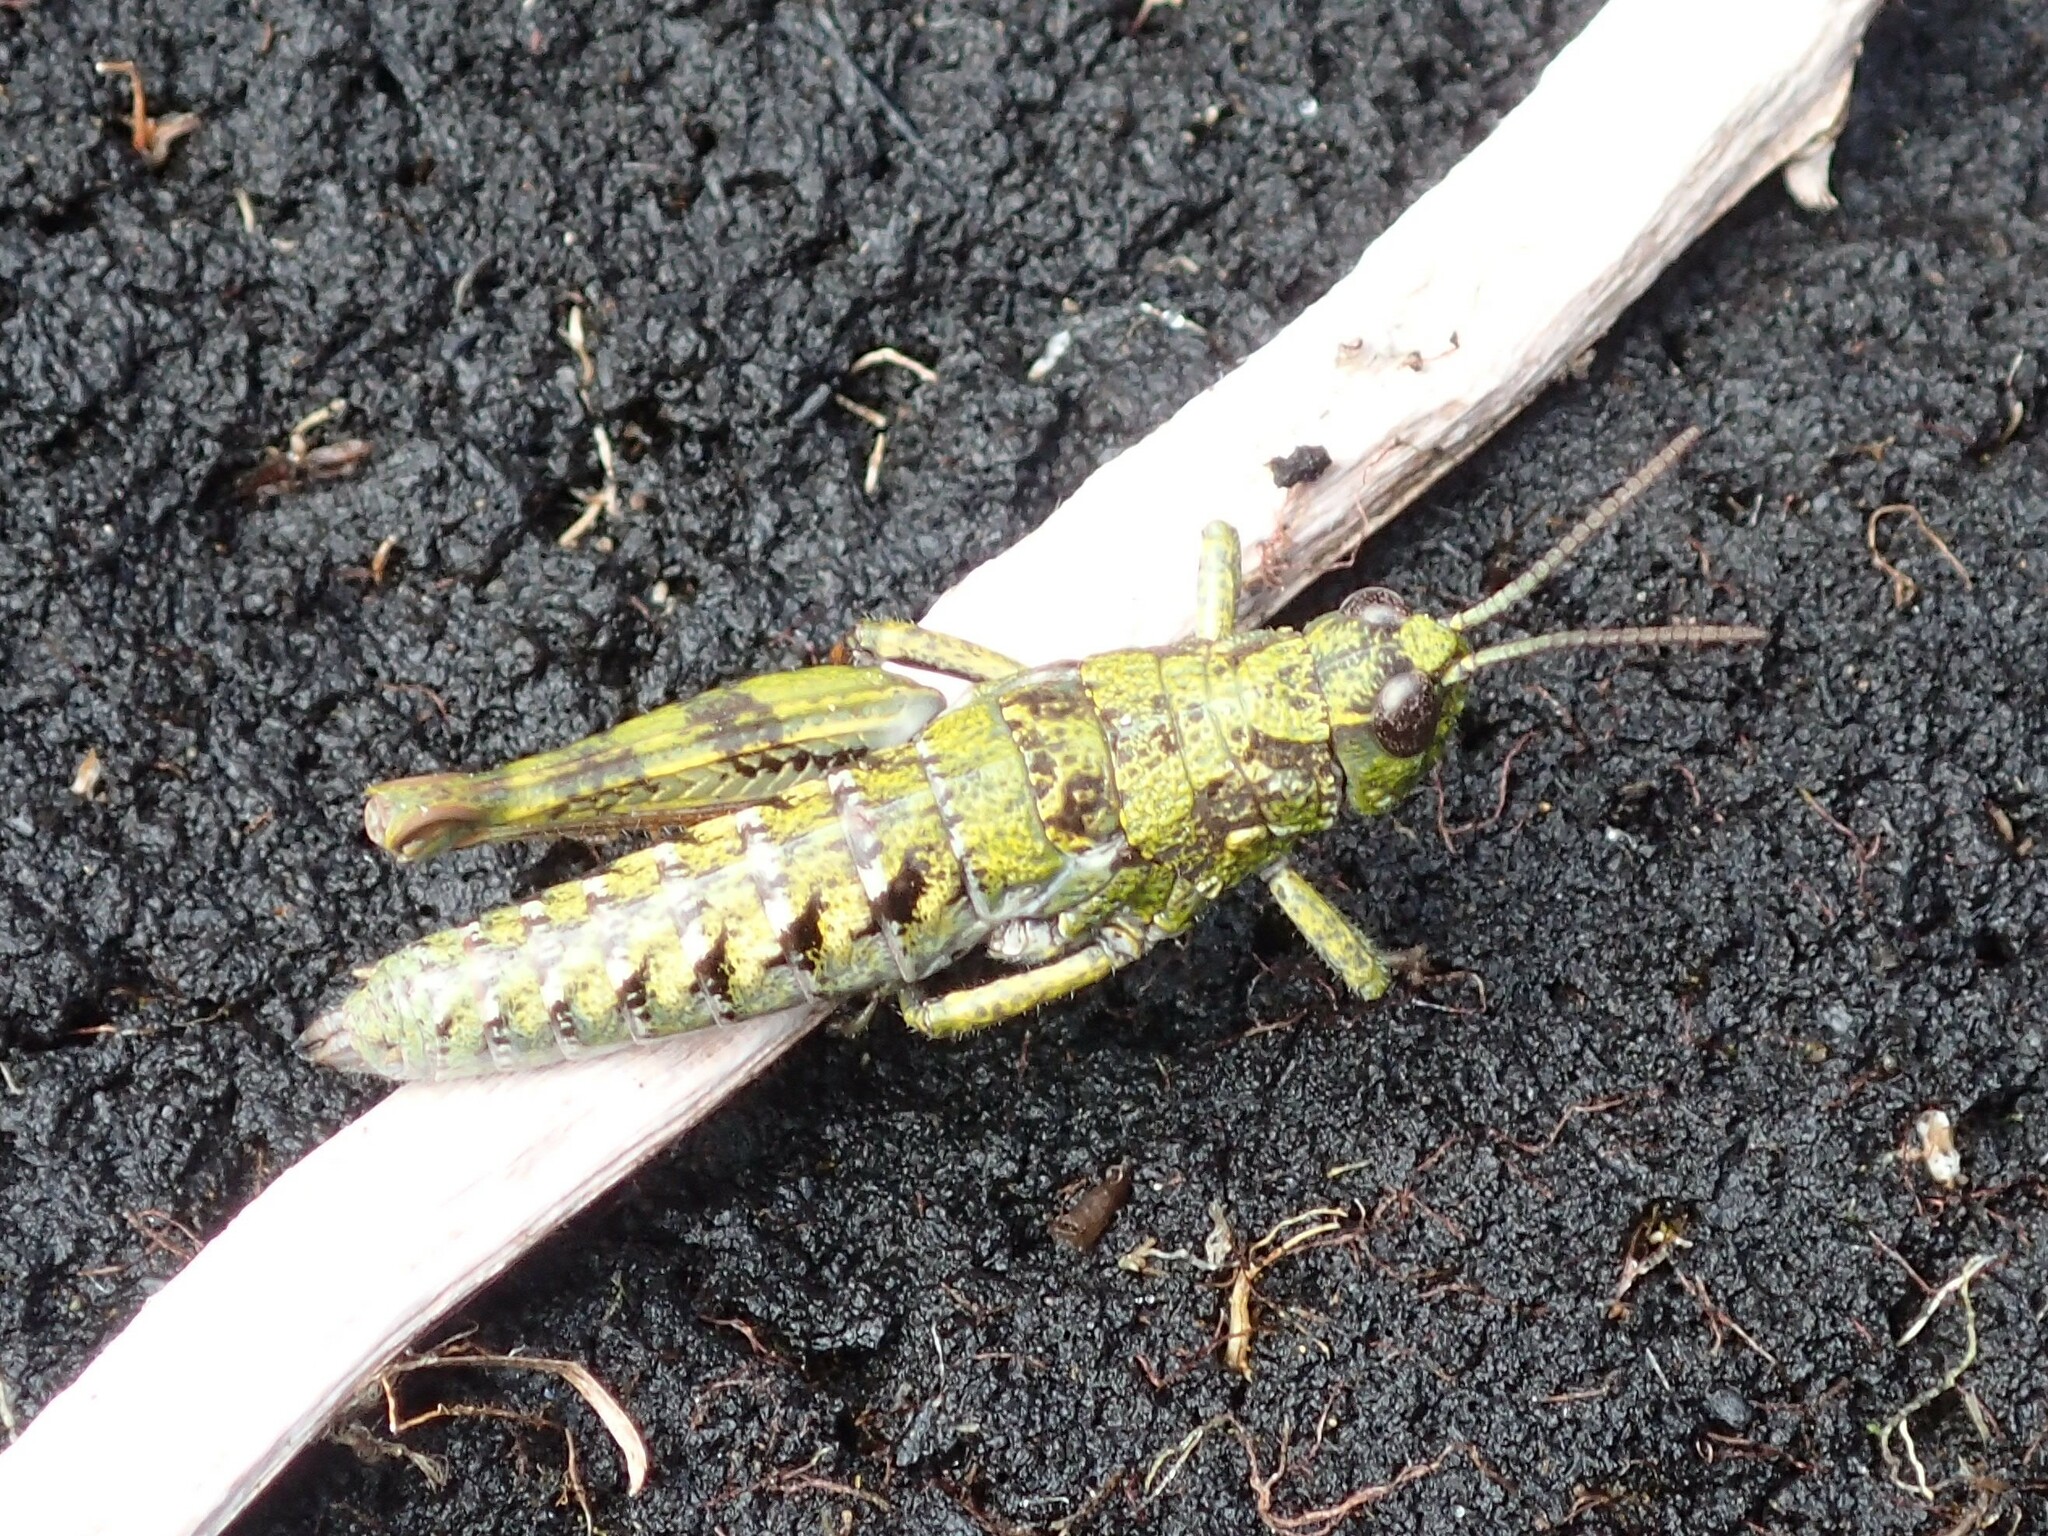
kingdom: Animalia
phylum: Arthropoda
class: Insecta
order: Orthoptera
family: Acrididae
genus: Tasmaniacris
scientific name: Tasmaniacris tasmaniensis
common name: Tasmanian grasshopper
